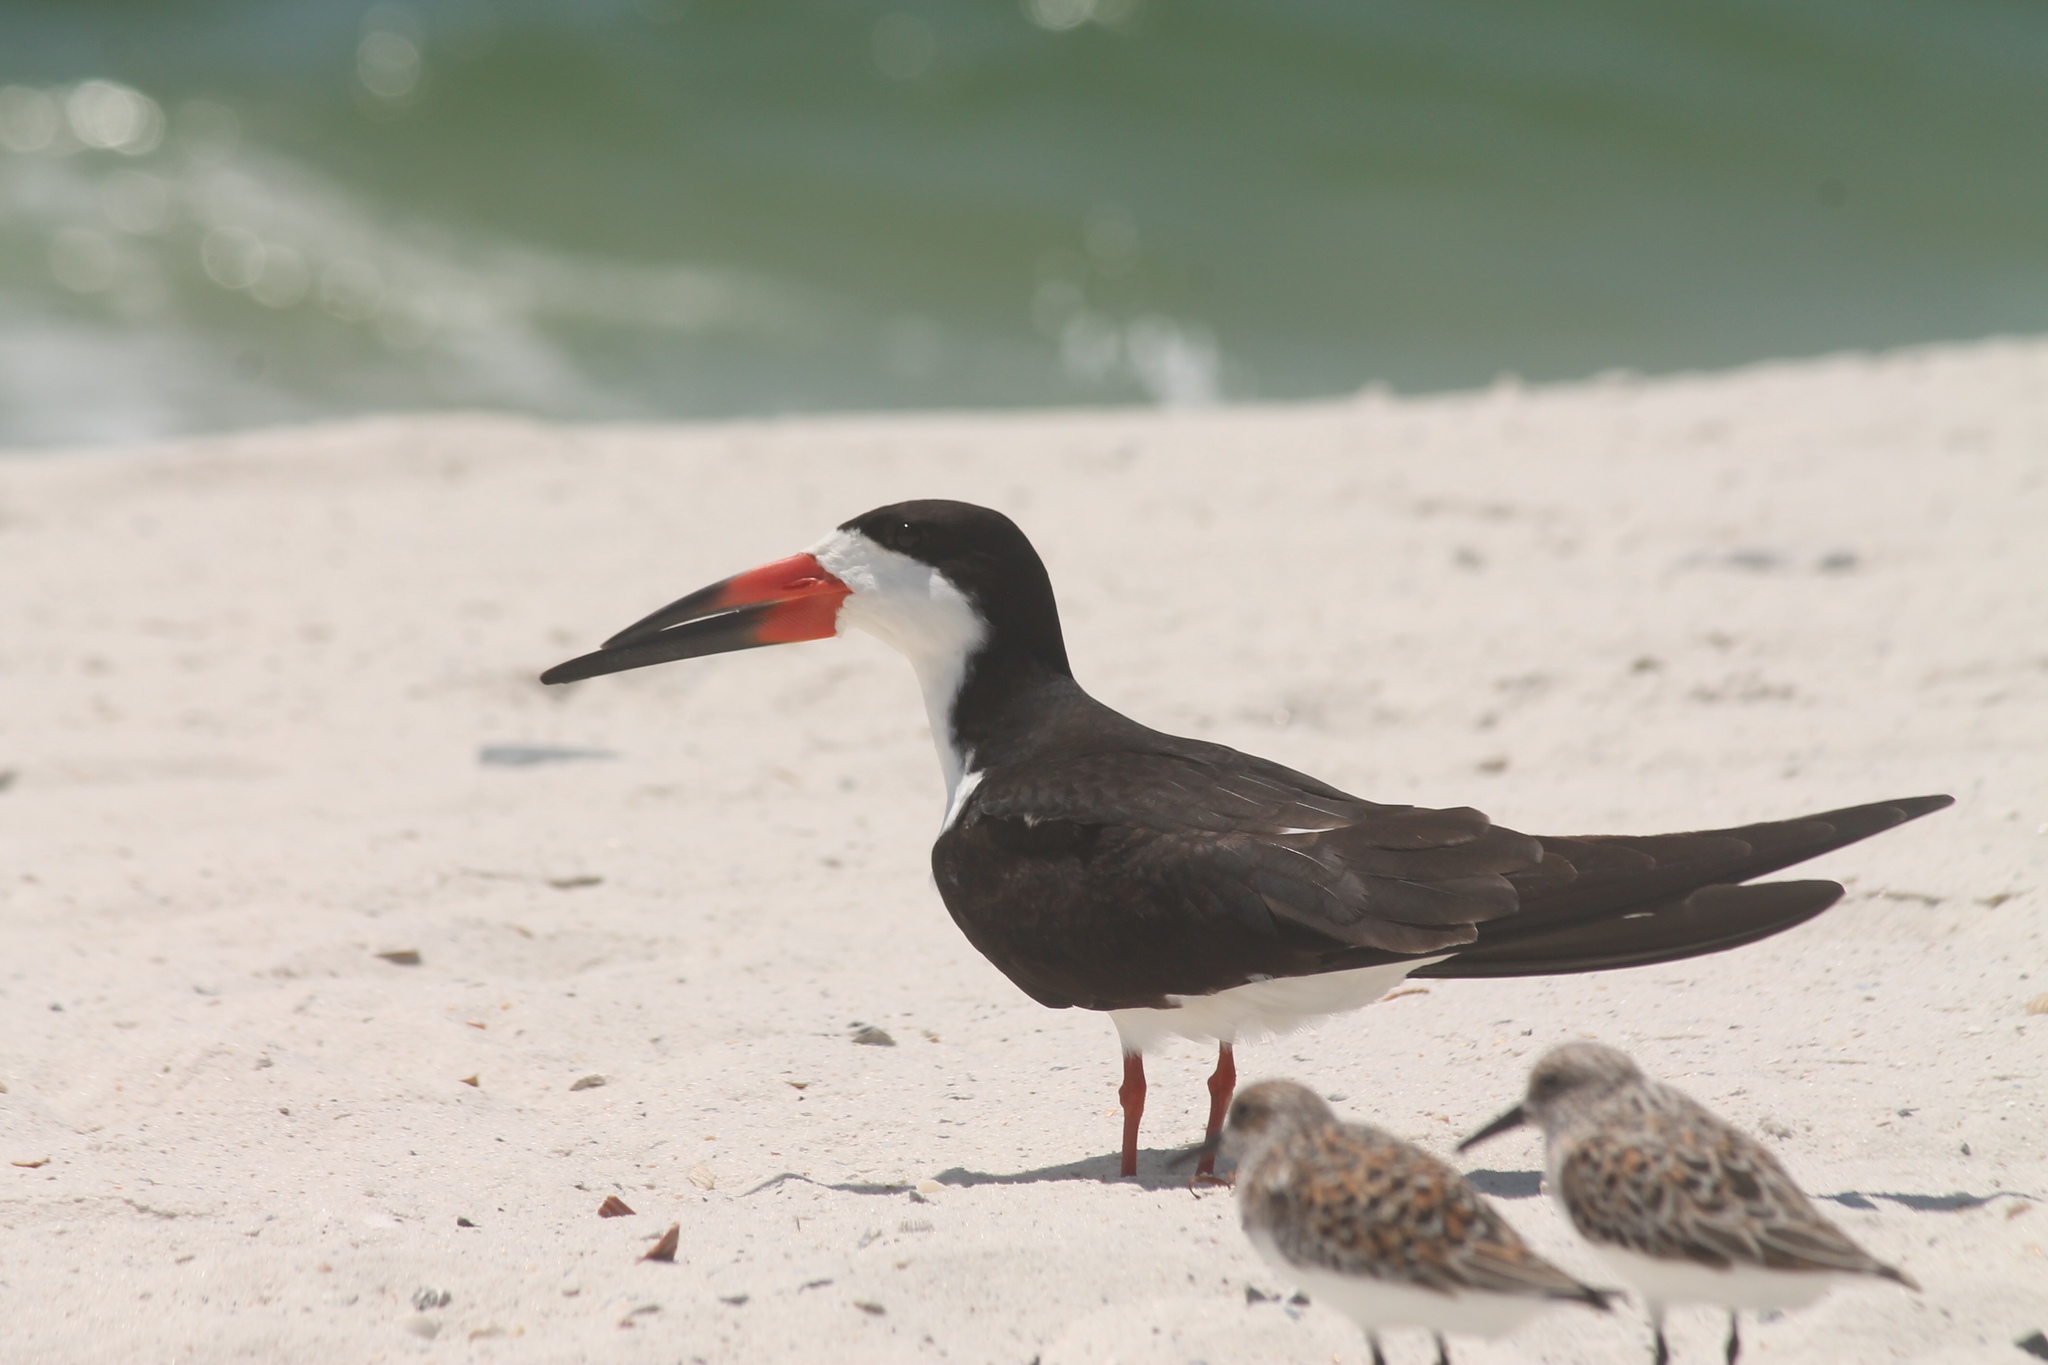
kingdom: Animalia
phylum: Chordata
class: Aves
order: Charadriiformes
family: Laridae
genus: Rynchops
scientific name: Rynchops niger
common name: Black skimmer
